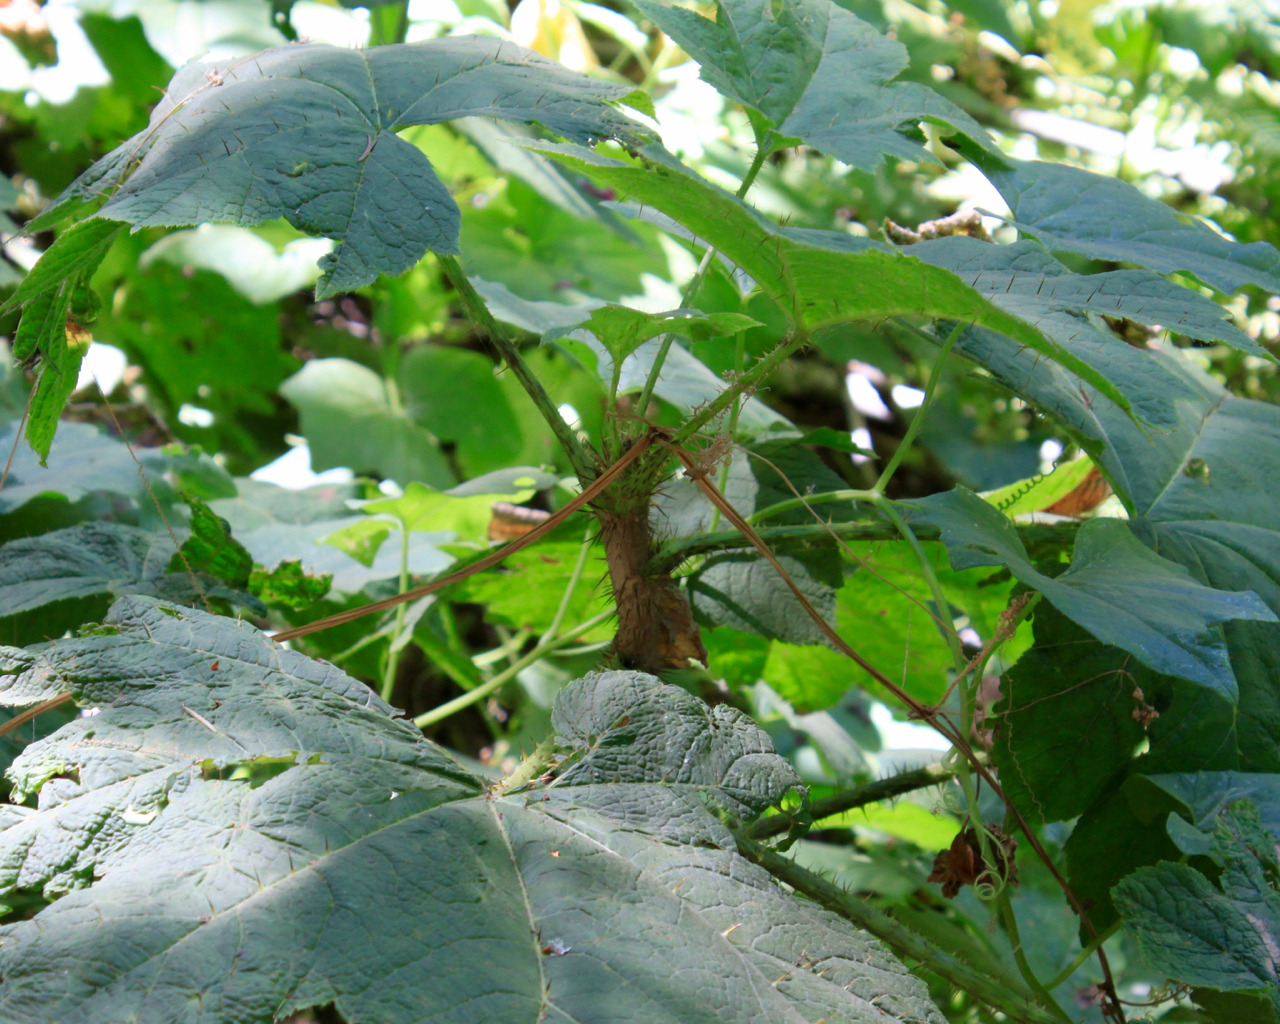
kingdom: Plantae
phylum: Tracheophyta
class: Magnoliopsida
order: Apiales
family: Araliaceae
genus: Oplopanax
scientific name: Oplopanax horridus
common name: Devil's walking-stick
